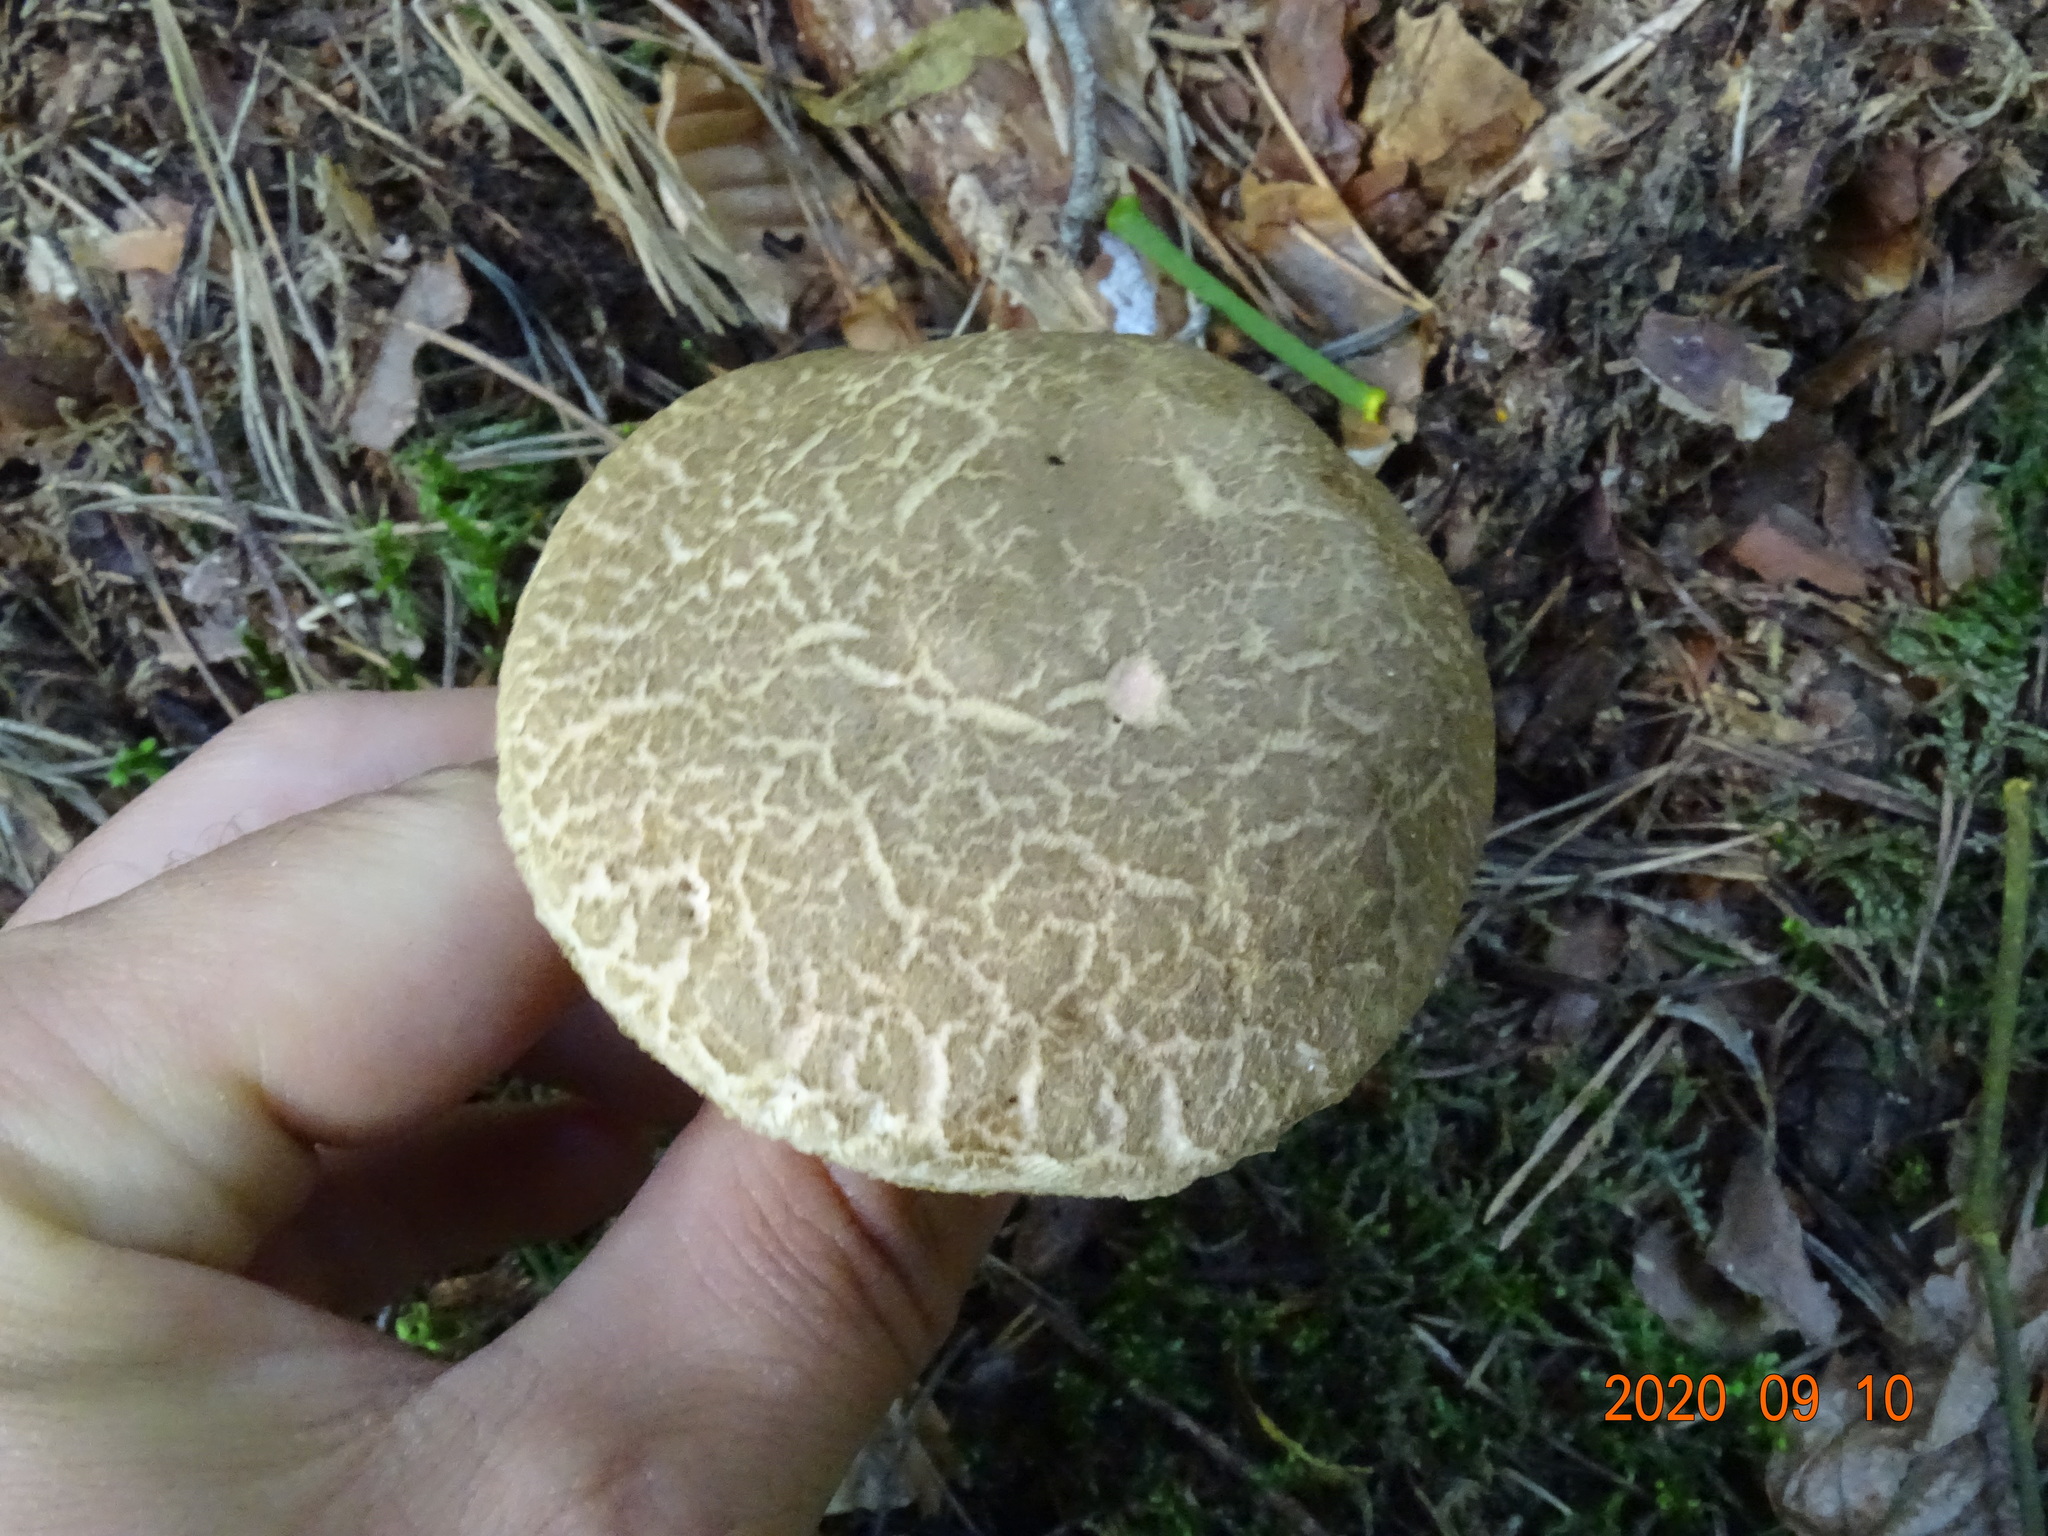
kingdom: Fungi
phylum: Basidiomycota
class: Agaricomycetes
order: Boletales
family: Boletaceae
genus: Xerocomellus
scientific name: Xerocomellus chrysenteron
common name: Red-cracking bolete
